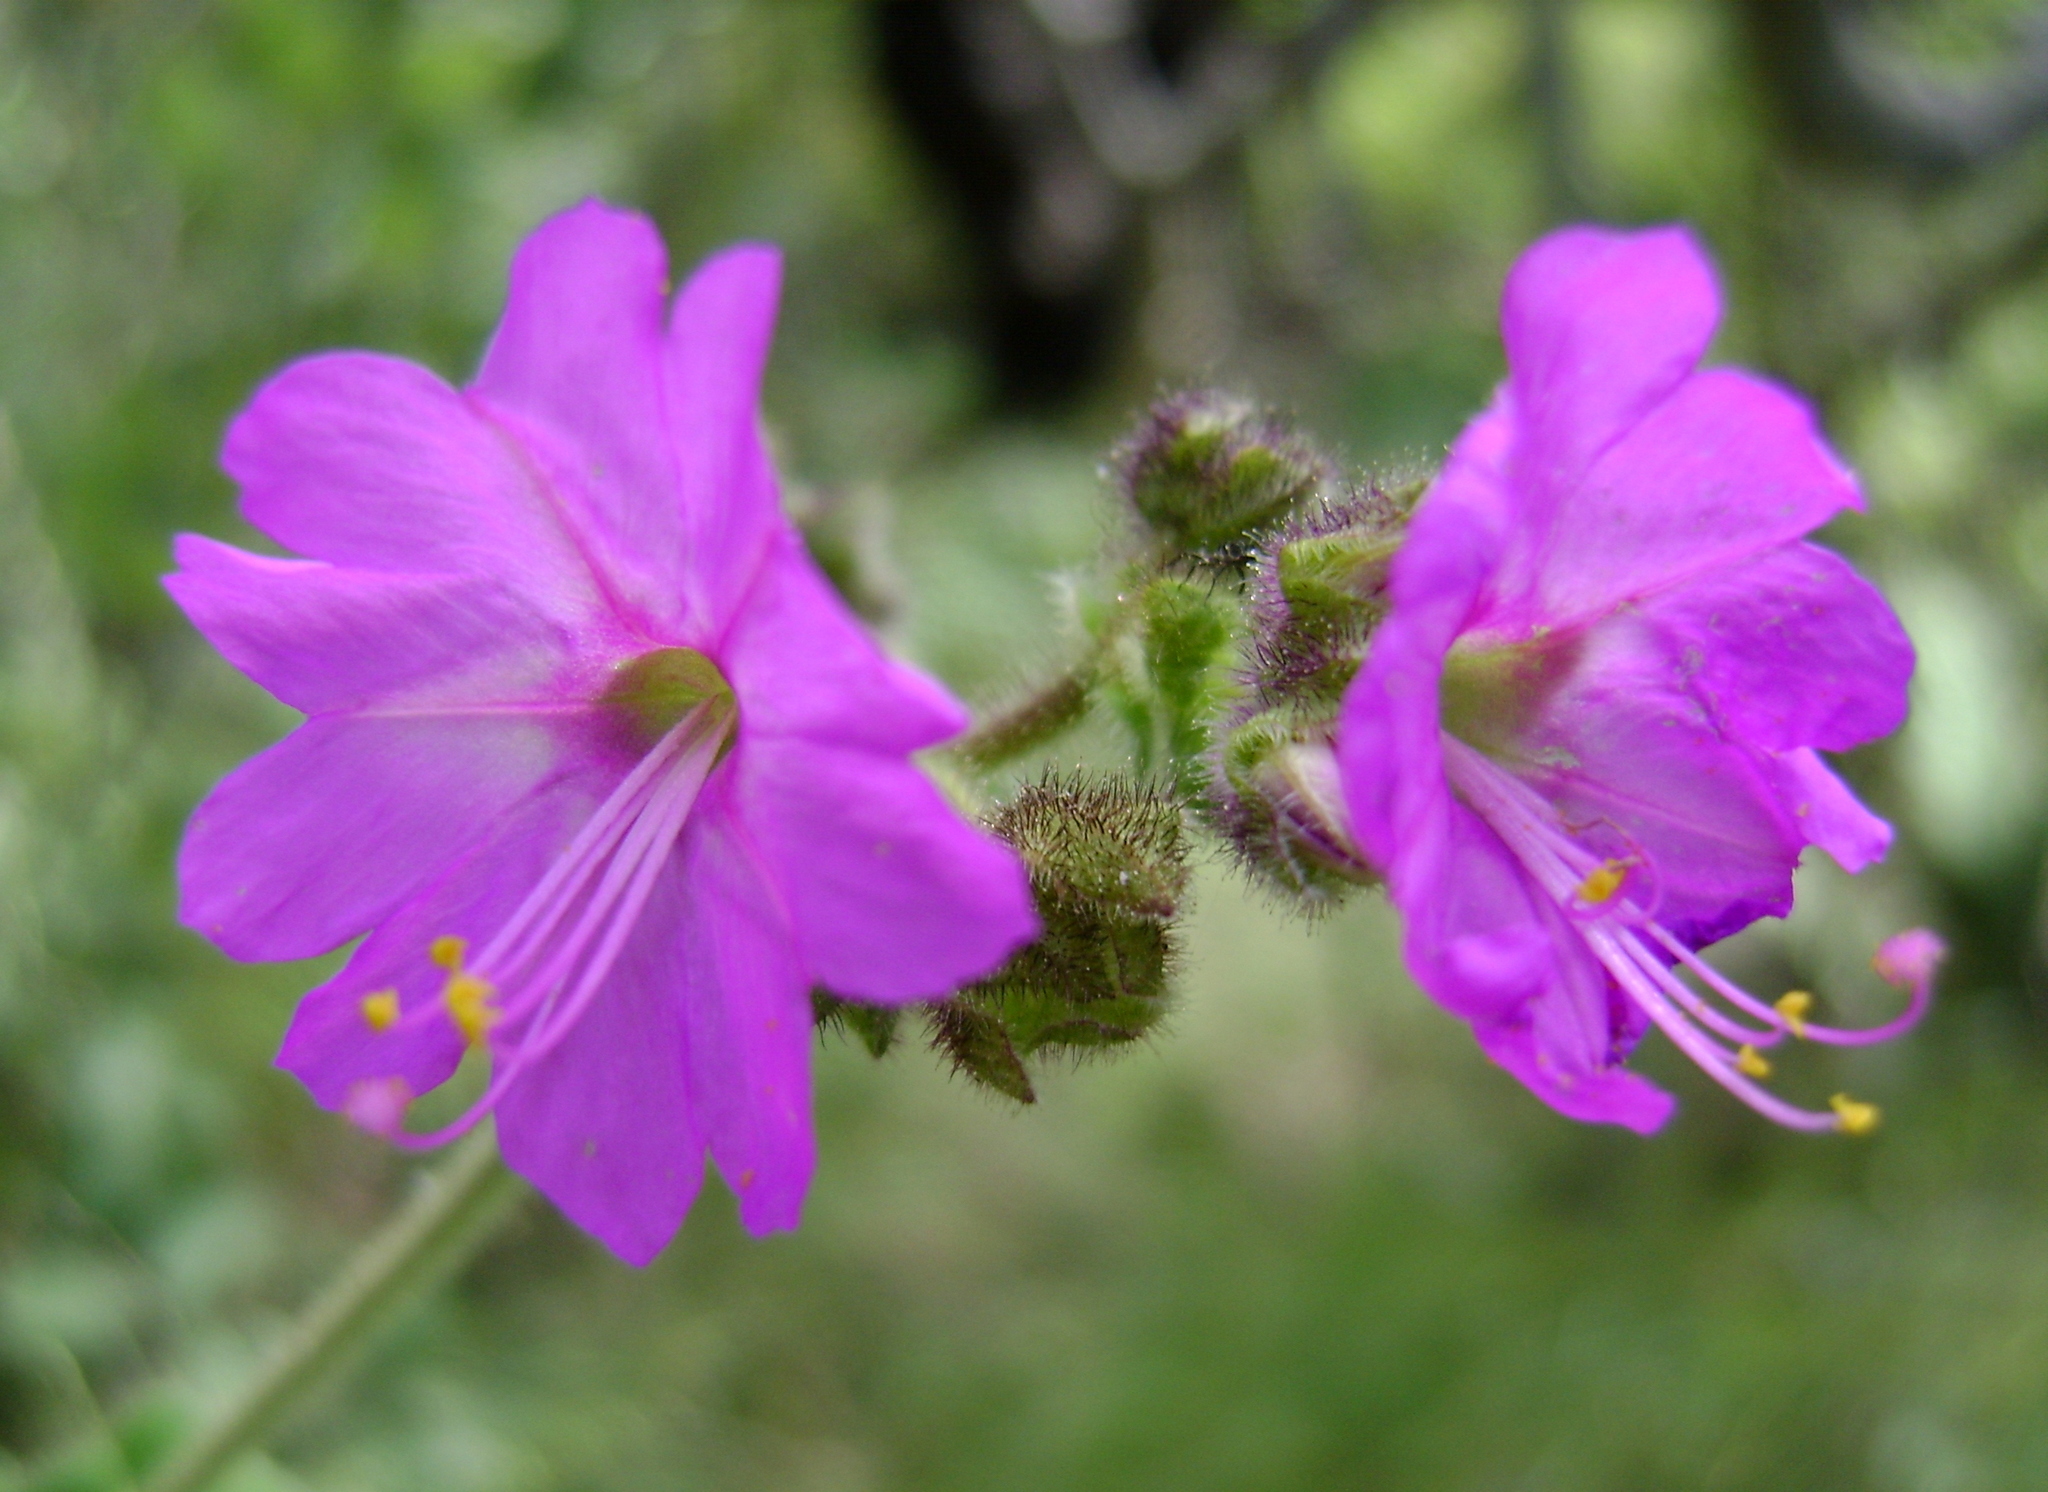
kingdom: Plantae
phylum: Tracheophyta
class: Magnoliopsida
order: Caryophyllales
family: Nyctaginaceae
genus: Mirabilis
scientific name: Mirabilis viscosa
